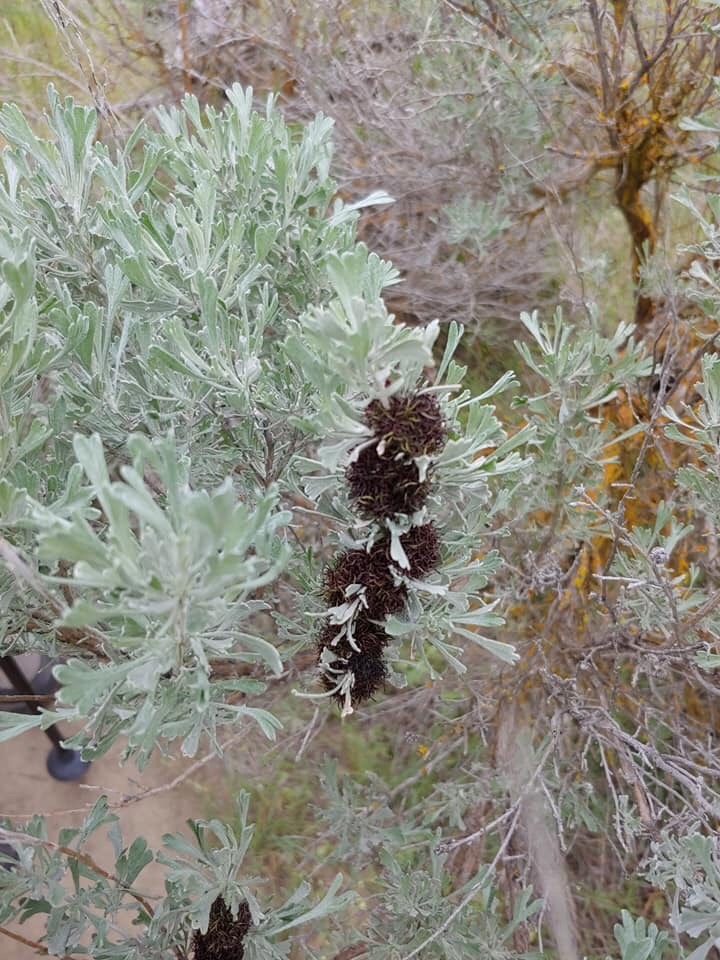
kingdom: Animalia
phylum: Arthropoda
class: Insecta
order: Diptera
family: Cecidomyiidae
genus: Rhopalomyia
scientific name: Rhopalomyia medusa
